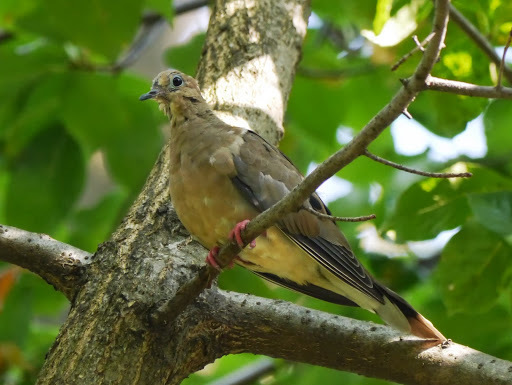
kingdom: Animalia
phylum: Chordata
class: Aves
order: Columbiformes
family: Columbidae
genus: Zenaida
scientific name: Zenaida macroura
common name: Mourning dove
